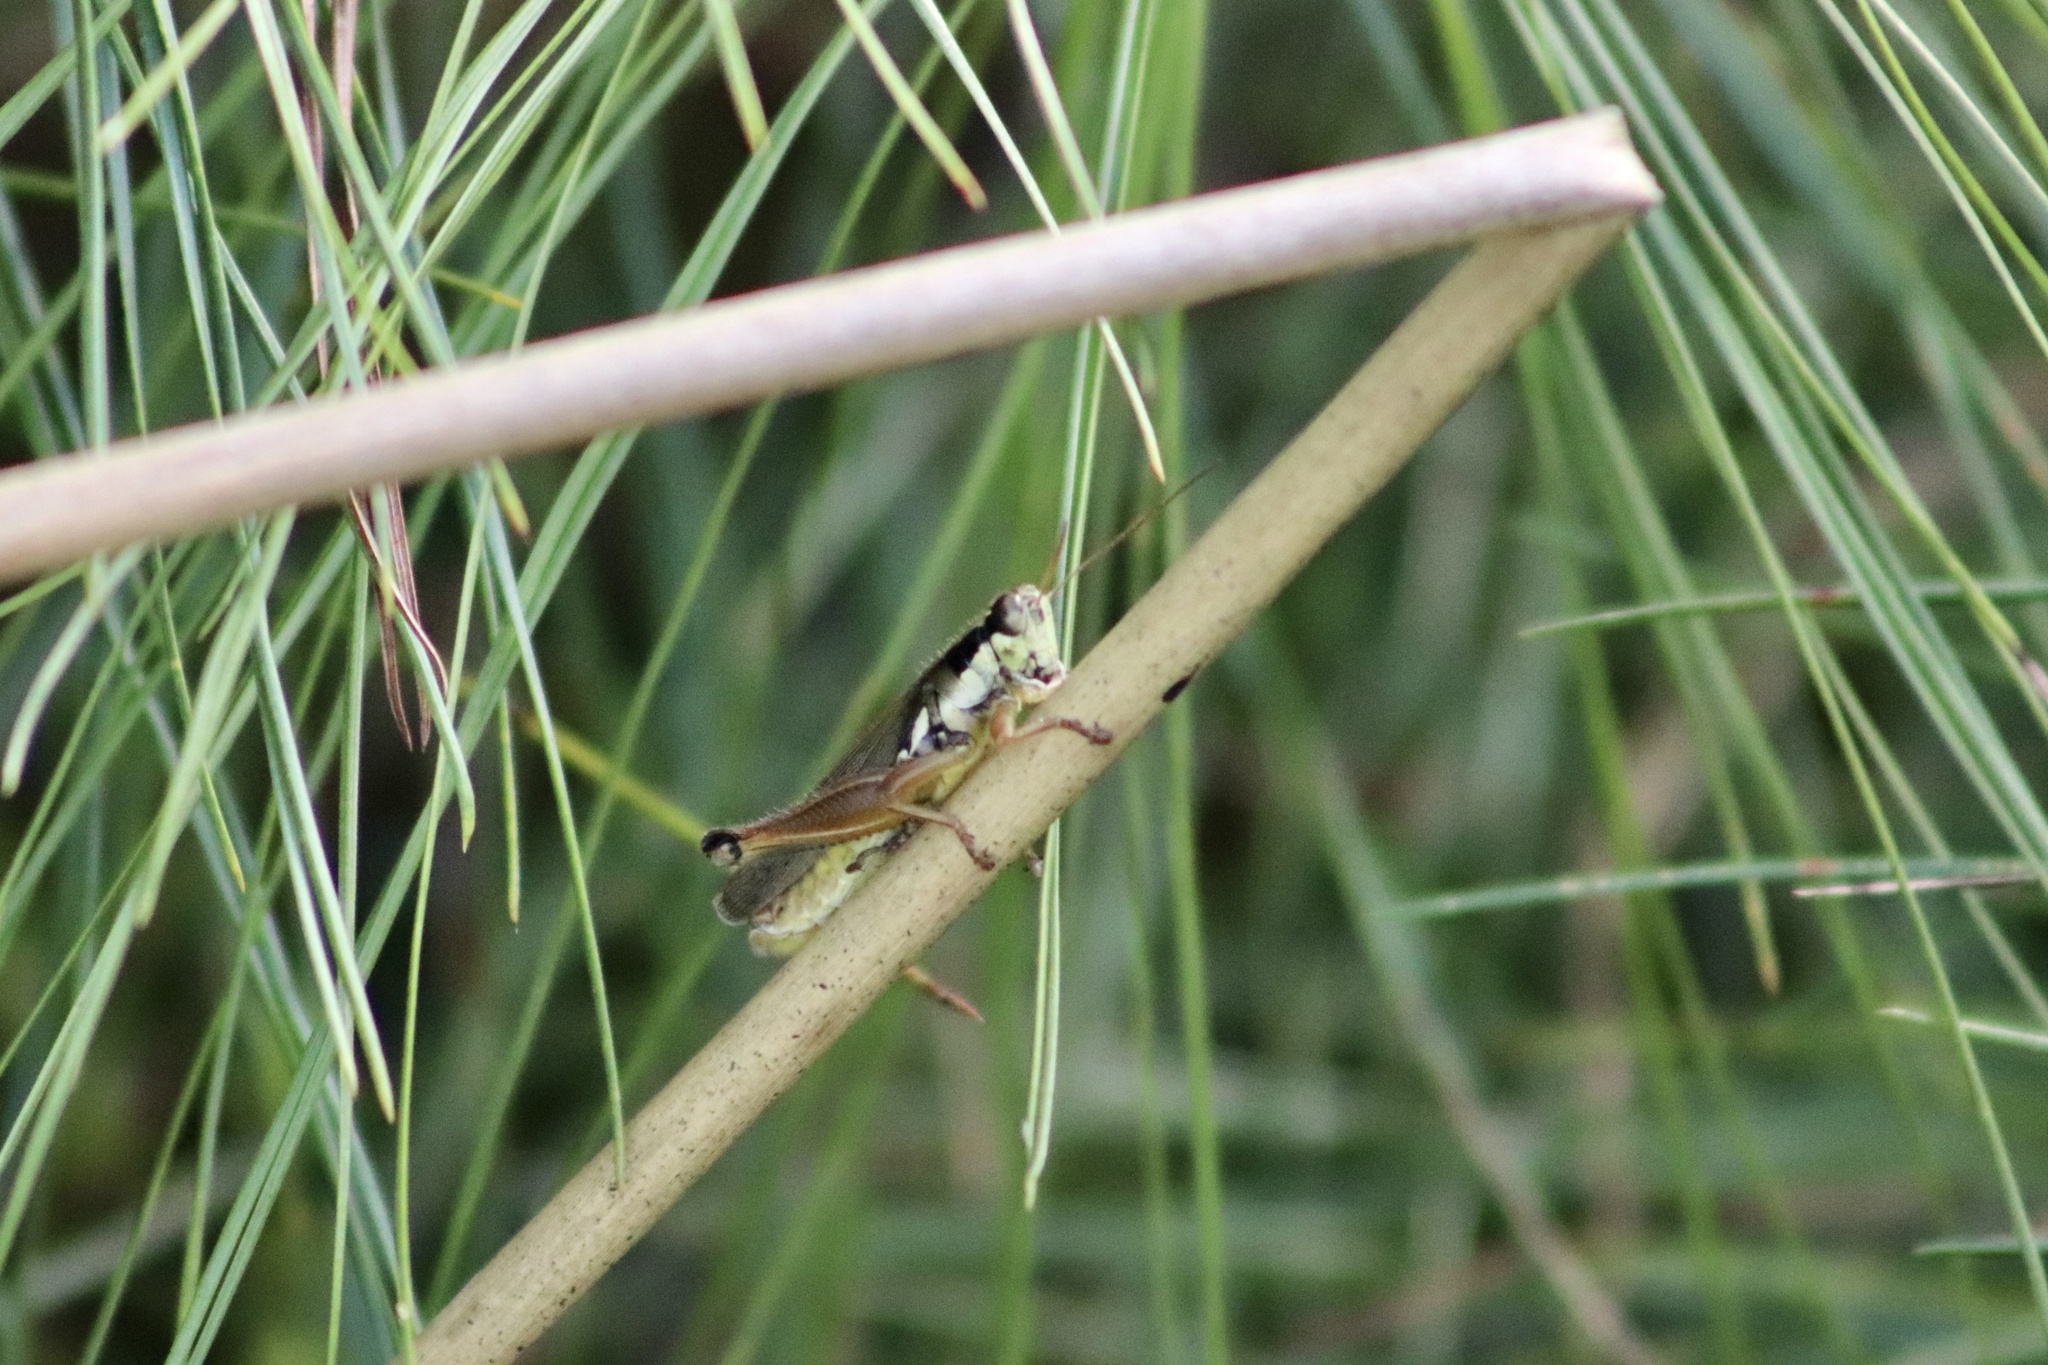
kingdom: Animalia
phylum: Arthropoda
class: Insecta
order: Orthoptera
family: Acrididae
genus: Paroxya
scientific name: Paroxya atlantica
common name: Atlantic grasshopper
